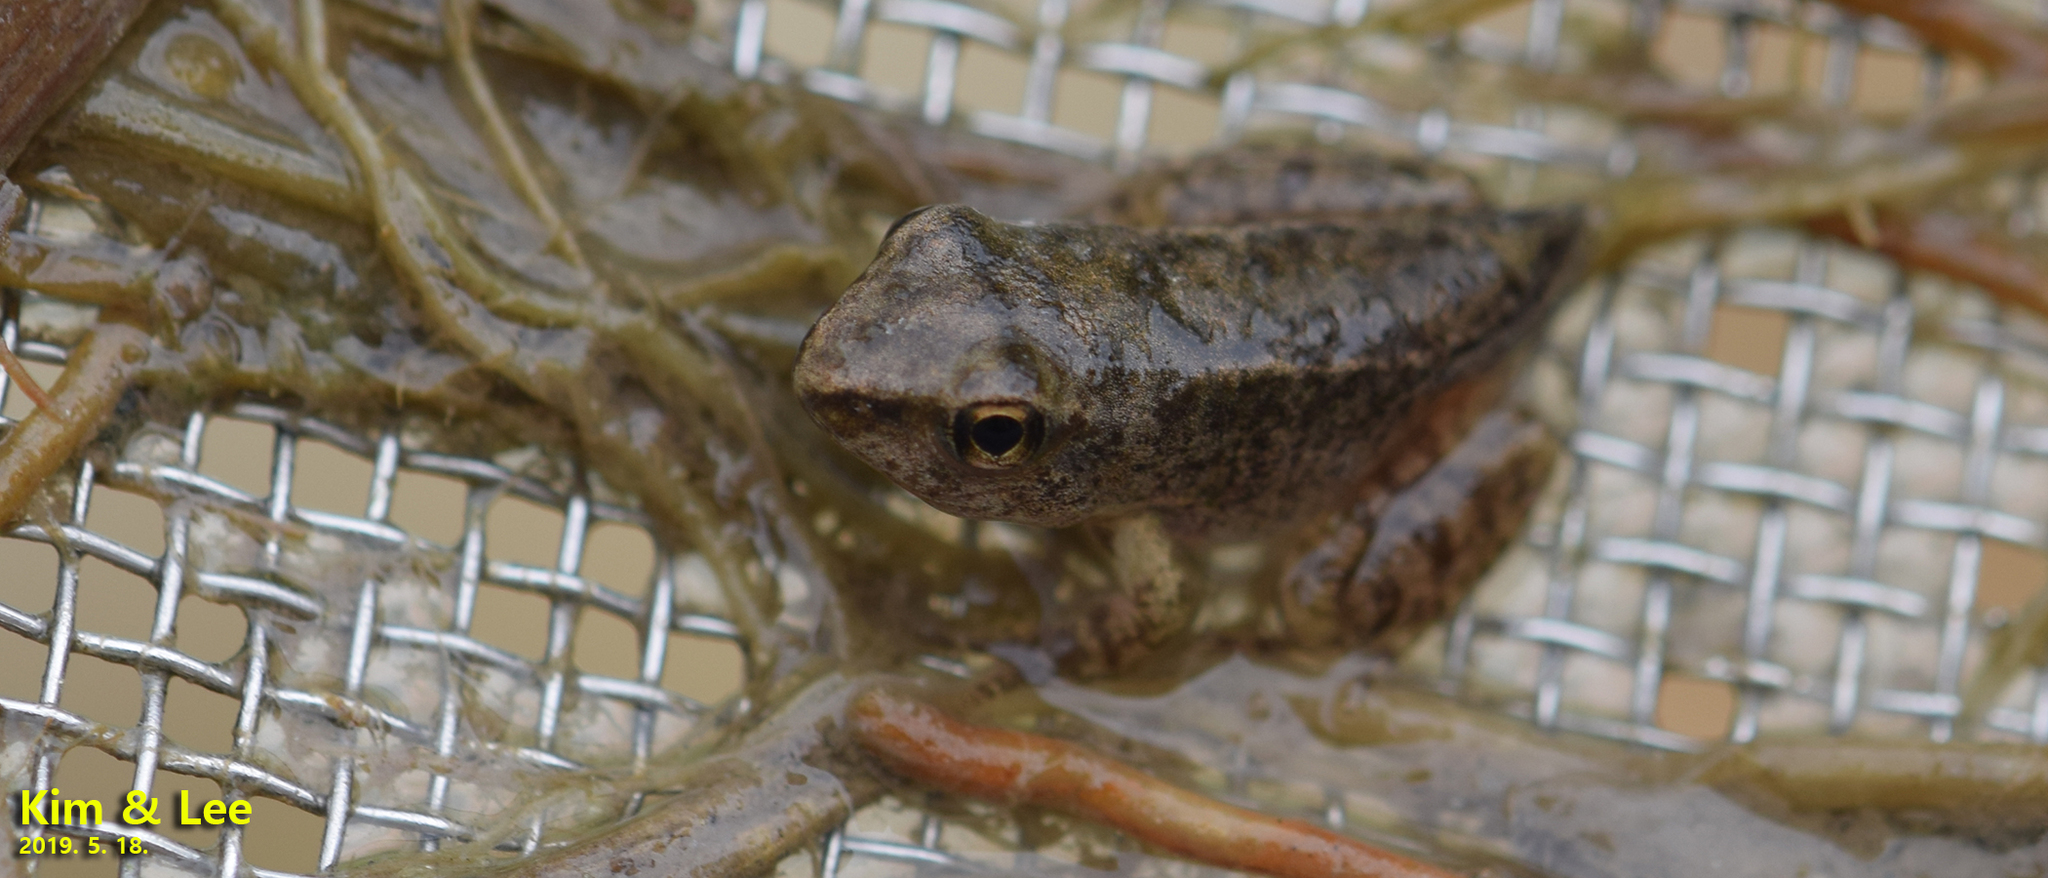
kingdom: Animalia
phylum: Chordata
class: Amphibia
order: Anura
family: Ranidae
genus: Rana
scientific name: Rana uenoi
